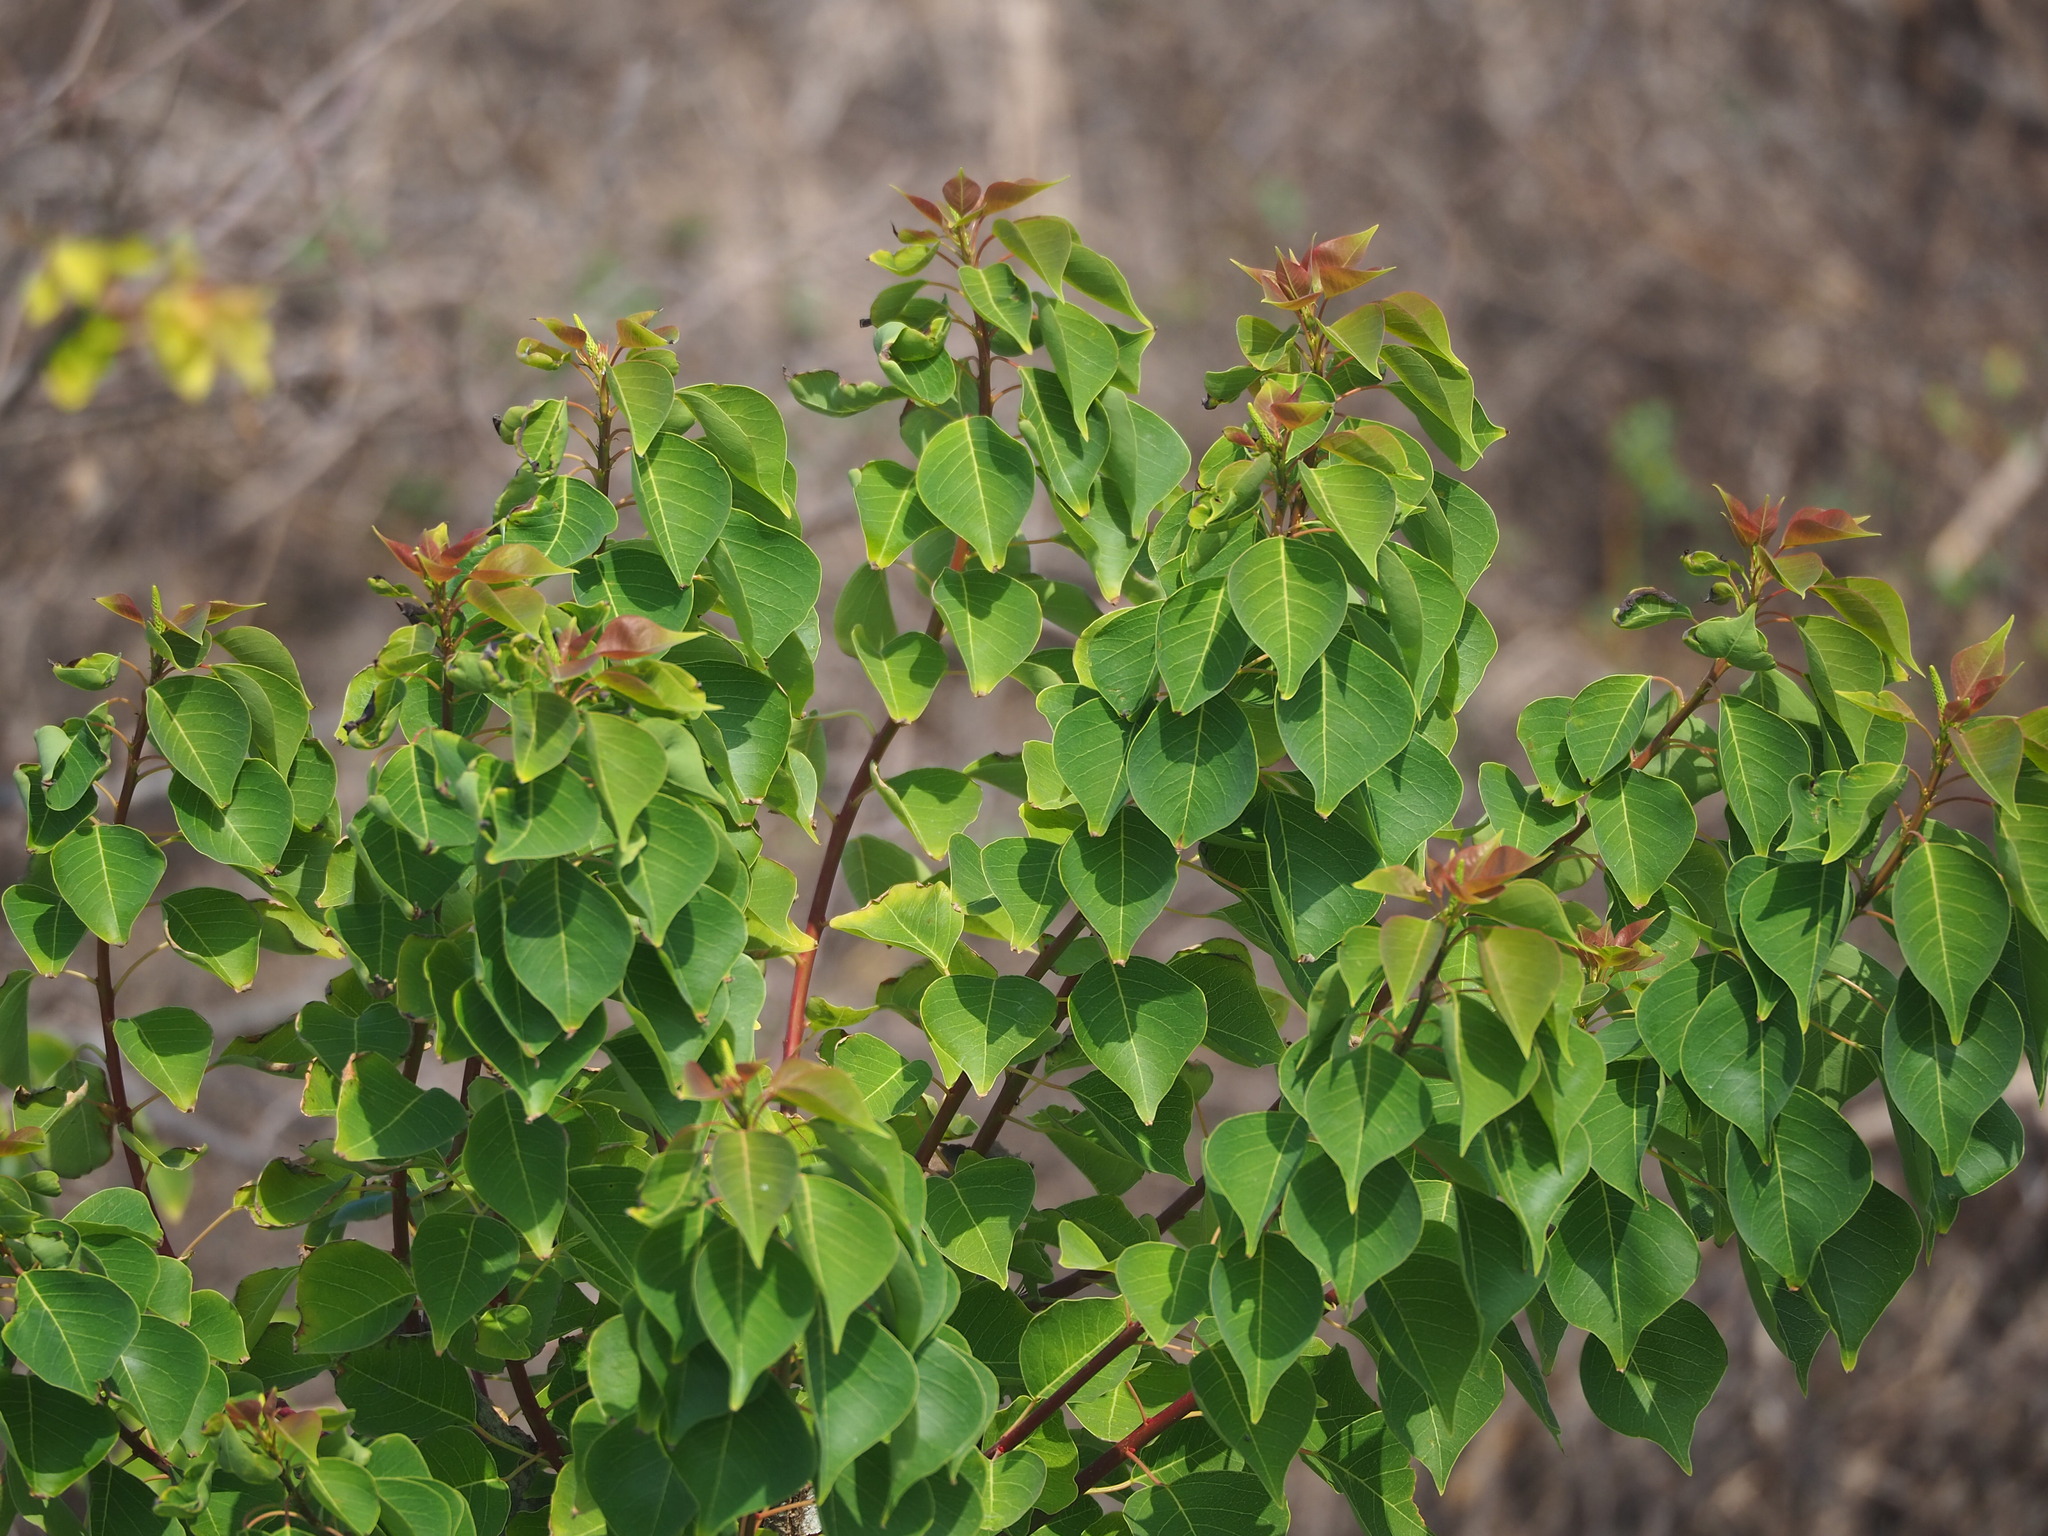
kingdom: Plantae
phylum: Tracheophyta
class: Magnoliopsida
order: Malpighiales
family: Euphorbiaceae
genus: Triadica
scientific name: Triadica sebifera
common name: Chinese tallow
